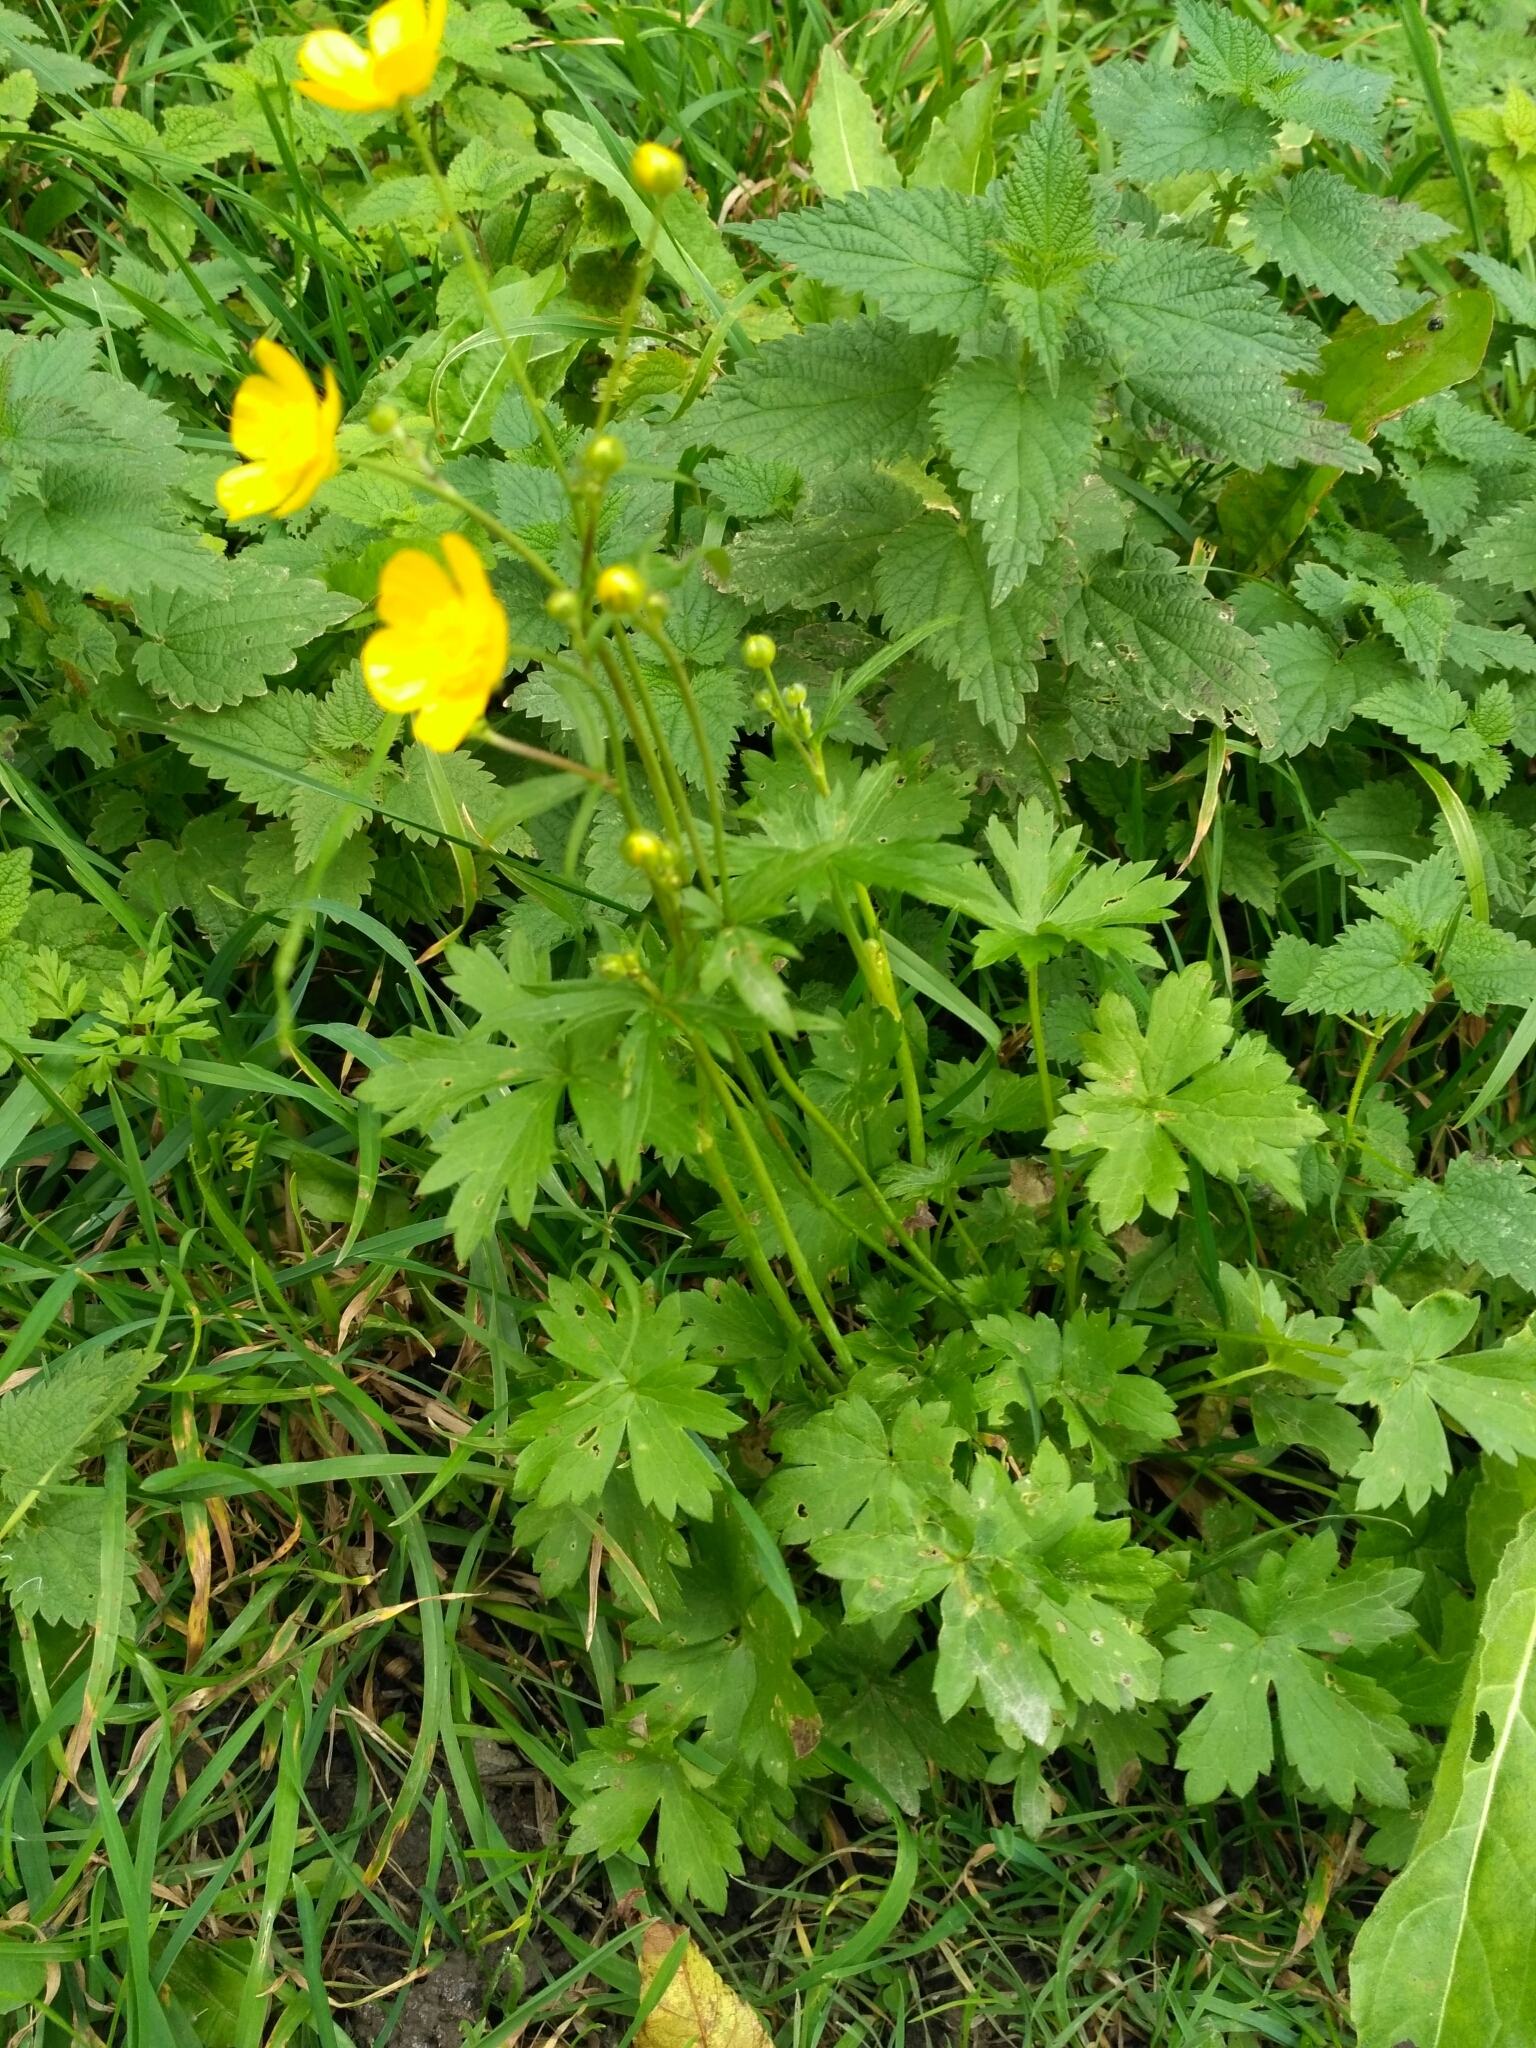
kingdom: Plantae
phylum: Tracheophyta
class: Magnoliopsida
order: Ranunculales
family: Ranunculaceae
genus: Ranunculus
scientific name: Ranunculus acris
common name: Meadow buttercup
